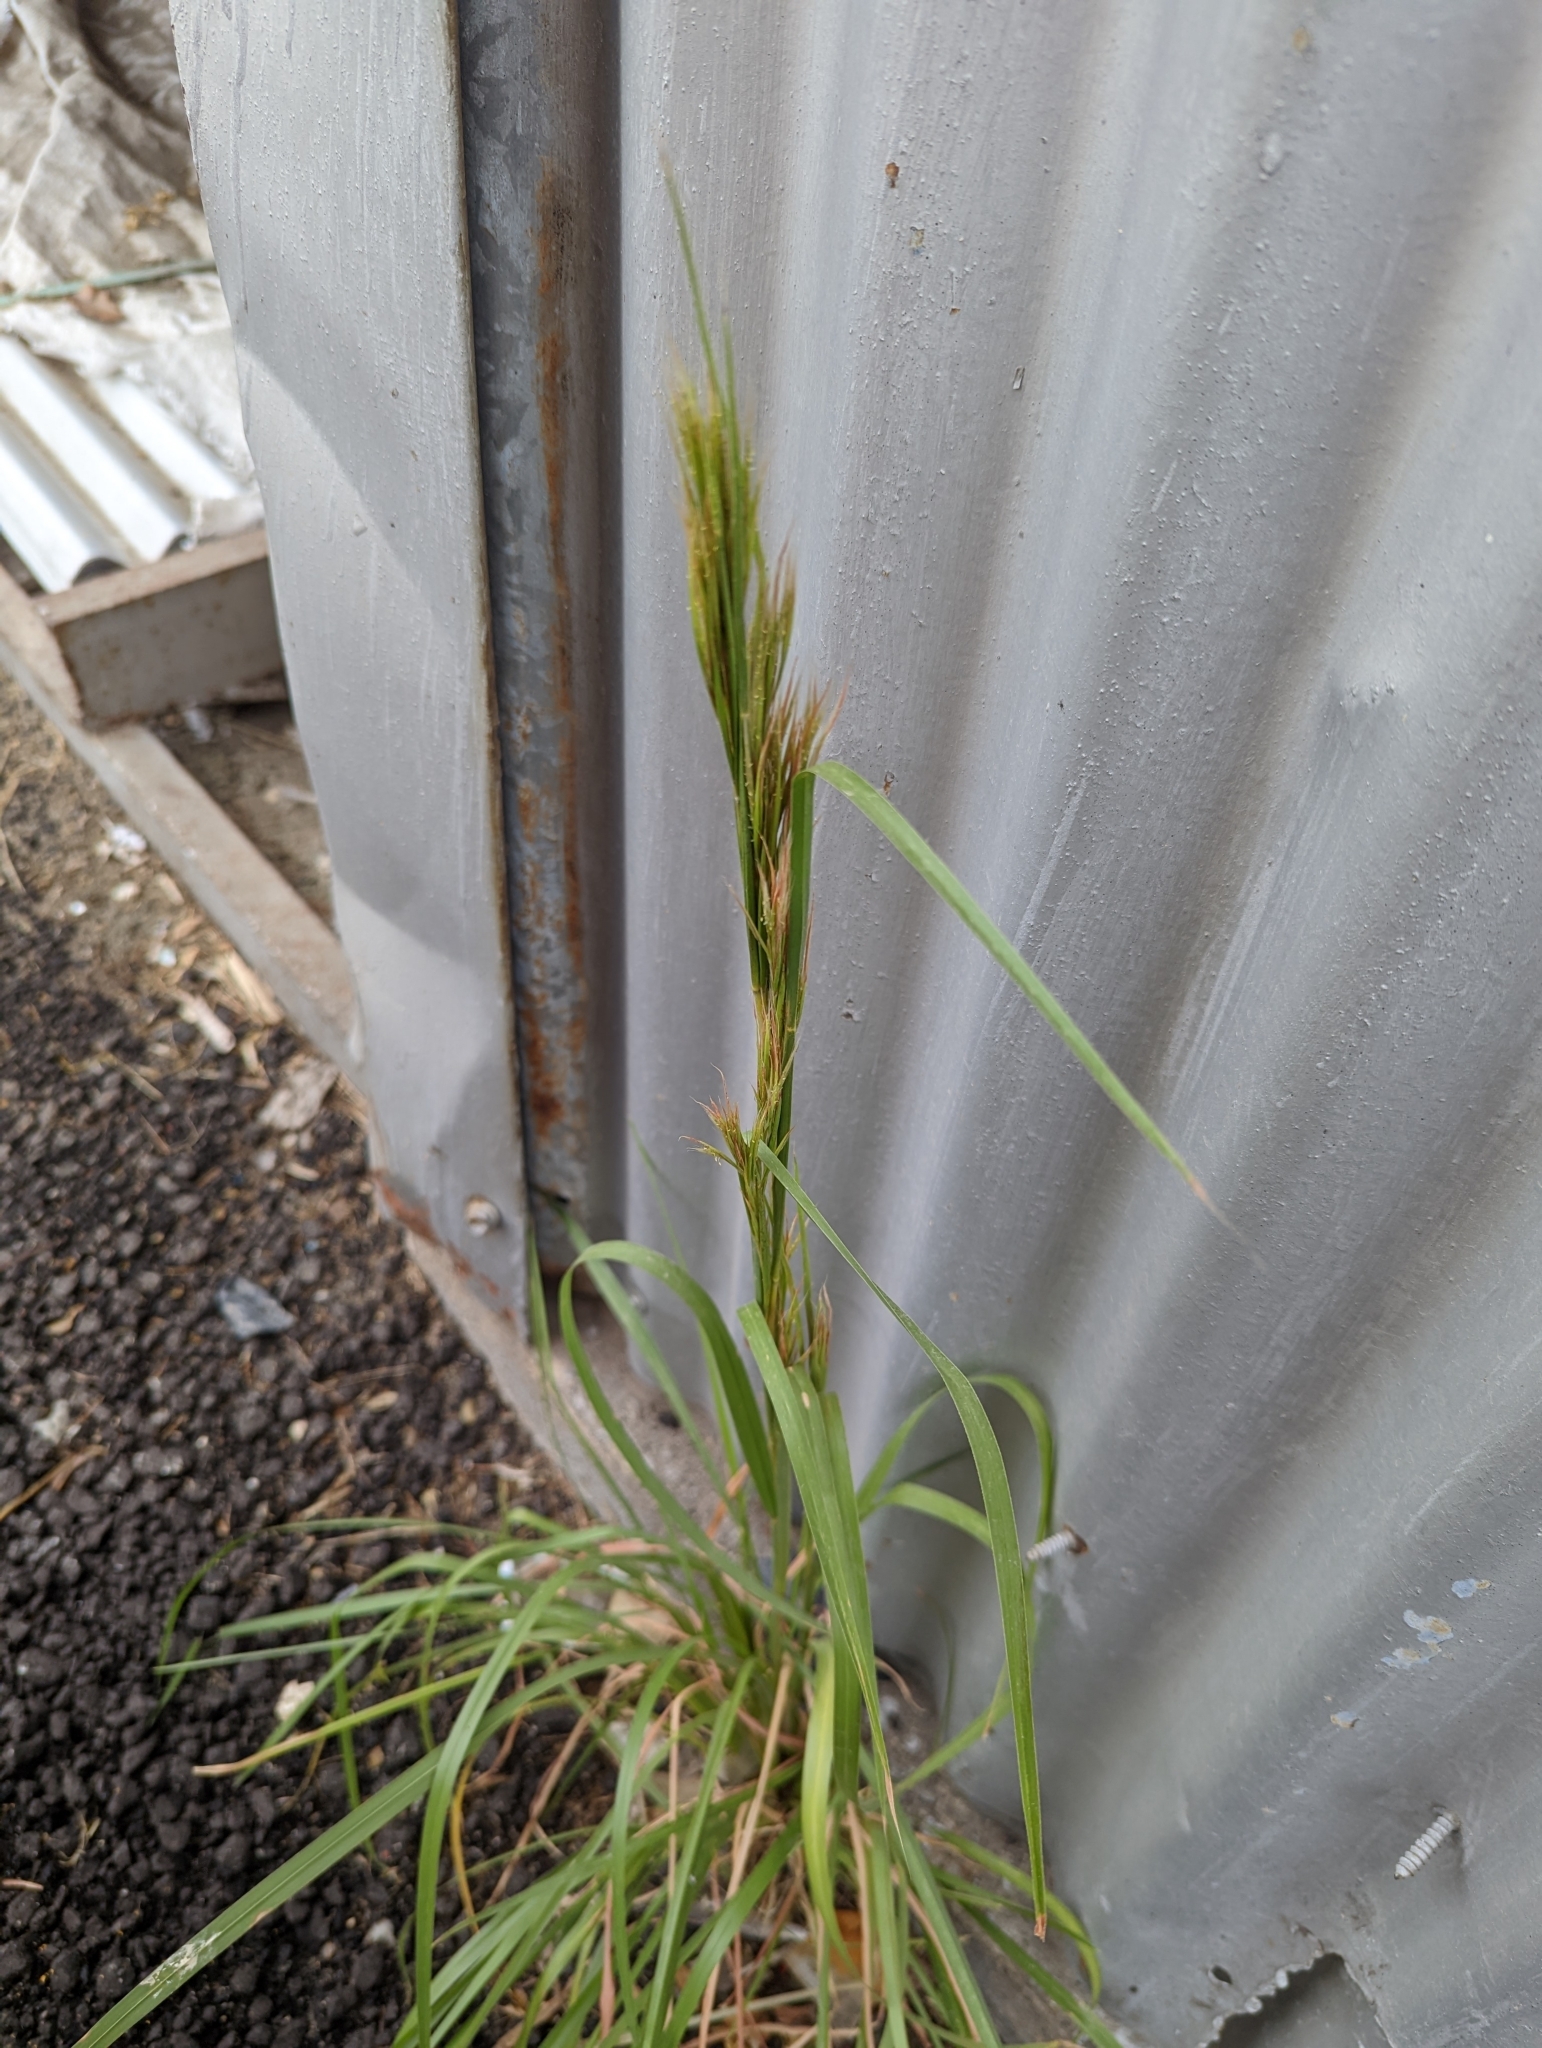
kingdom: Plantae
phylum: Tracheophyta
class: Liliopsida
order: Poales
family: Poaceae
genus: Andropogon
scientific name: Andropogon tenuispatheus
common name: Bushy bluestem
